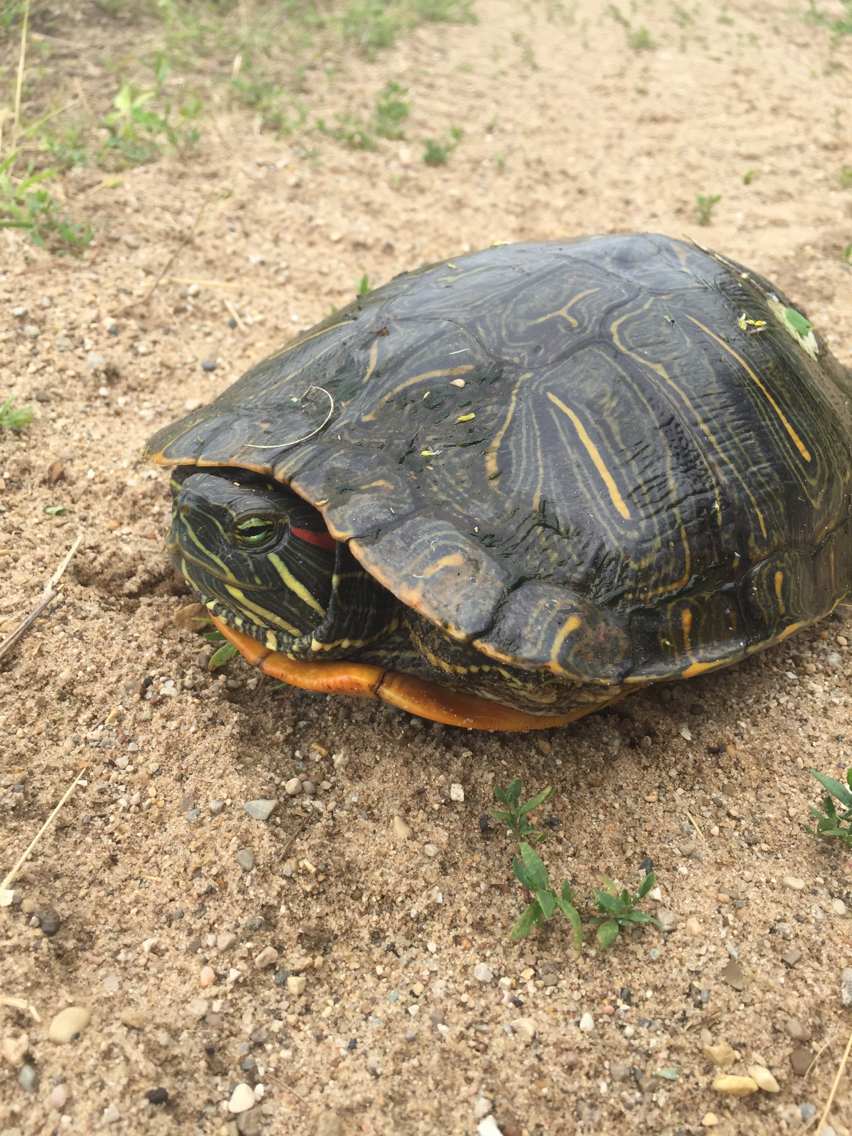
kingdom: Animalia
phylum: Chordata
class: Testudines
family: Emydidae
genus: Trachemys
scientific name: Trachemys scripta
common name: Slider
